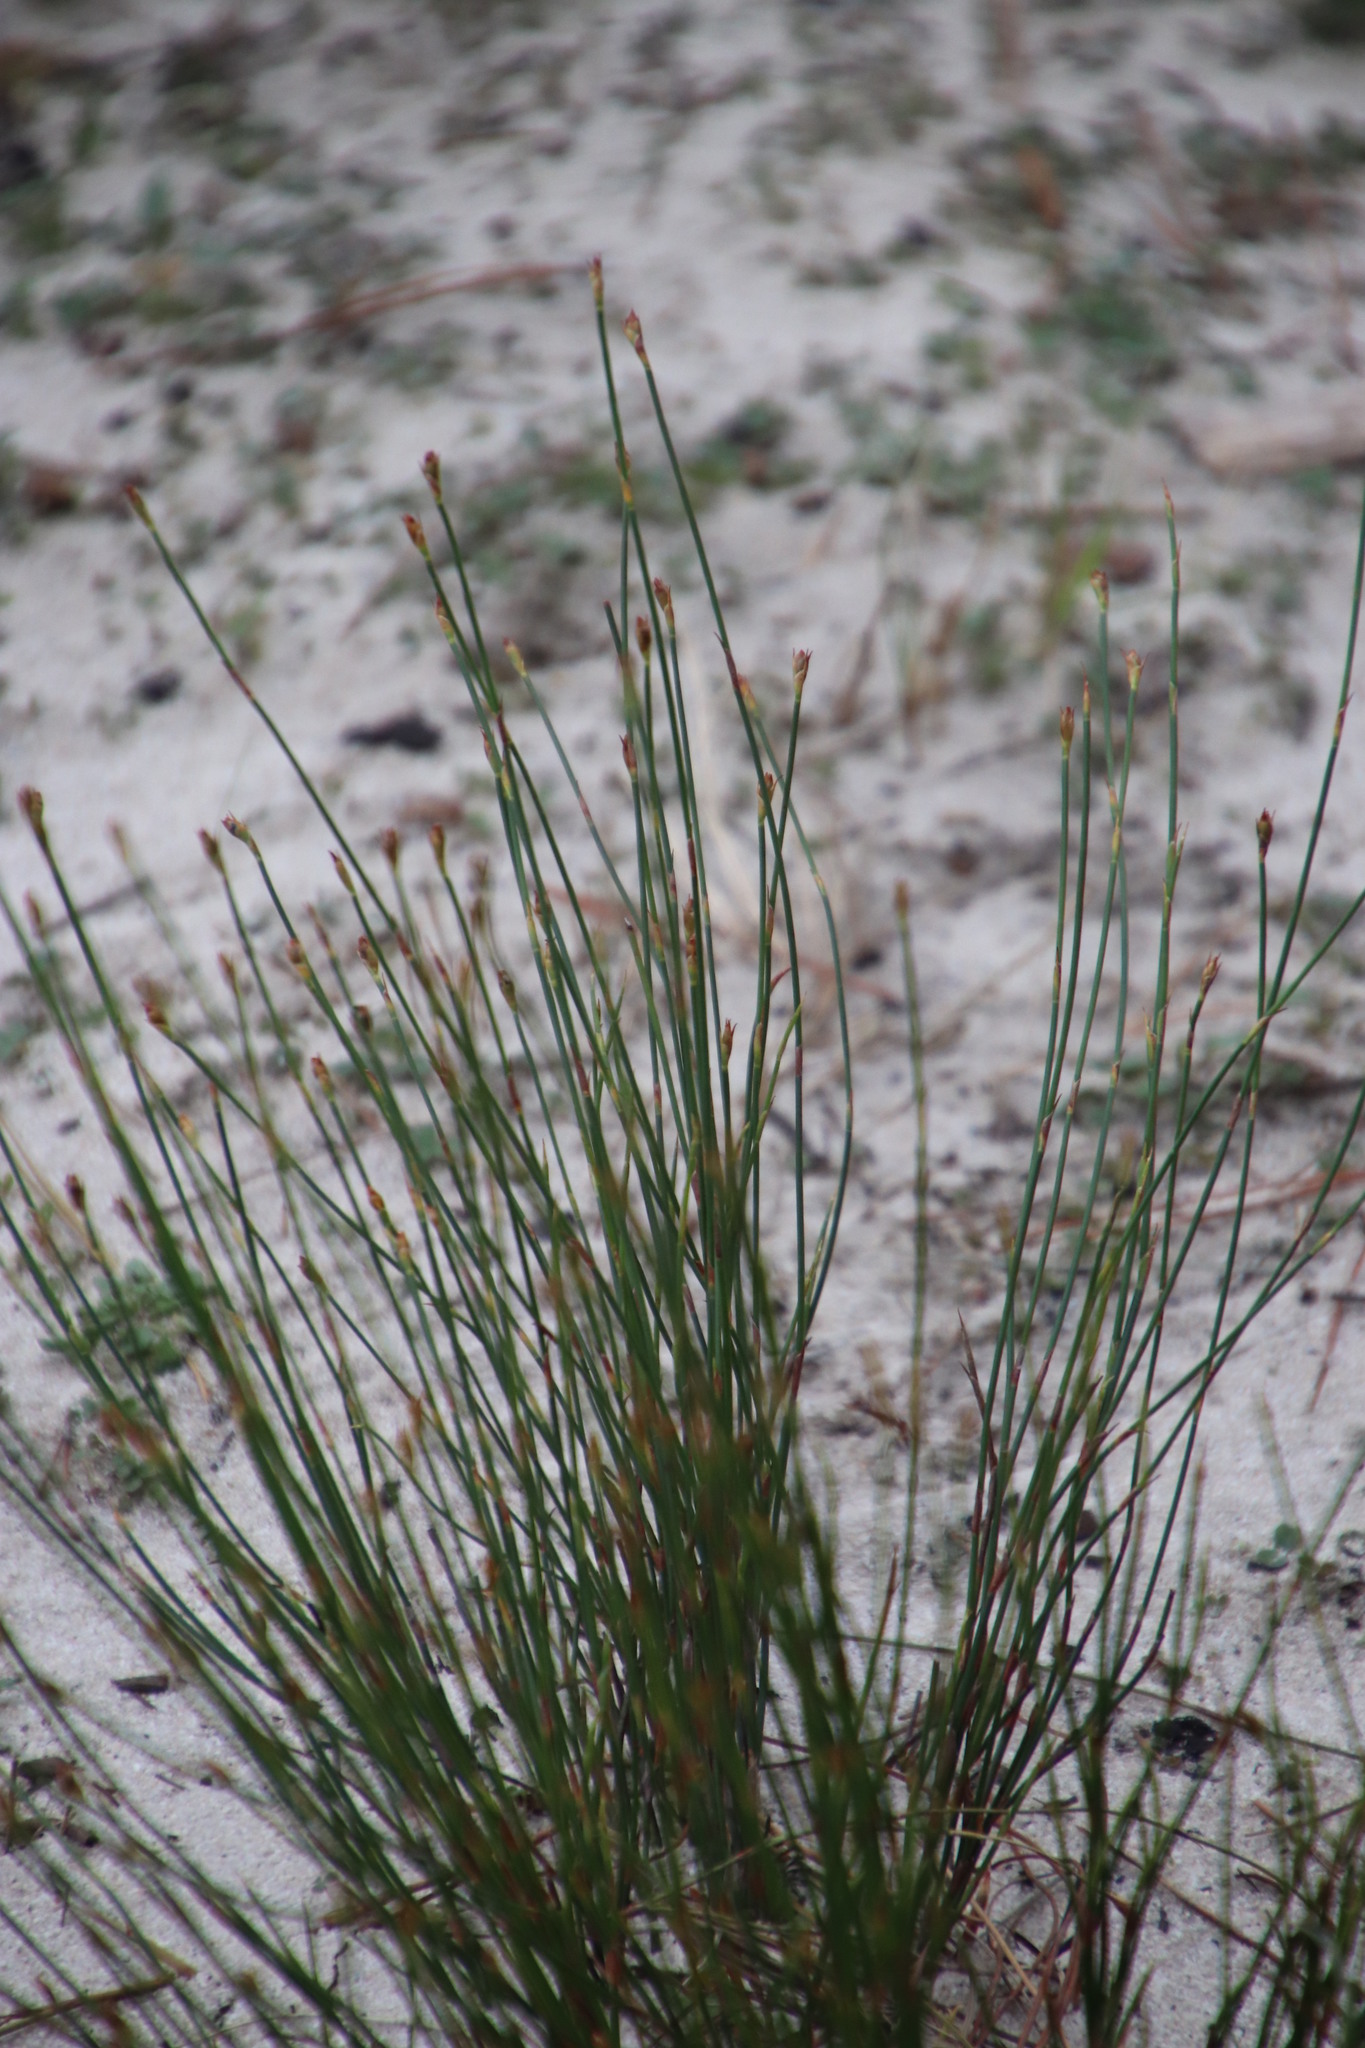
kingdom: Plantae
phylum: Tracheophyta
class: Liliopsida
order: Poales
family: Restionaceae
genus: Mastersiella
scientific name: Mastersiella digitata
